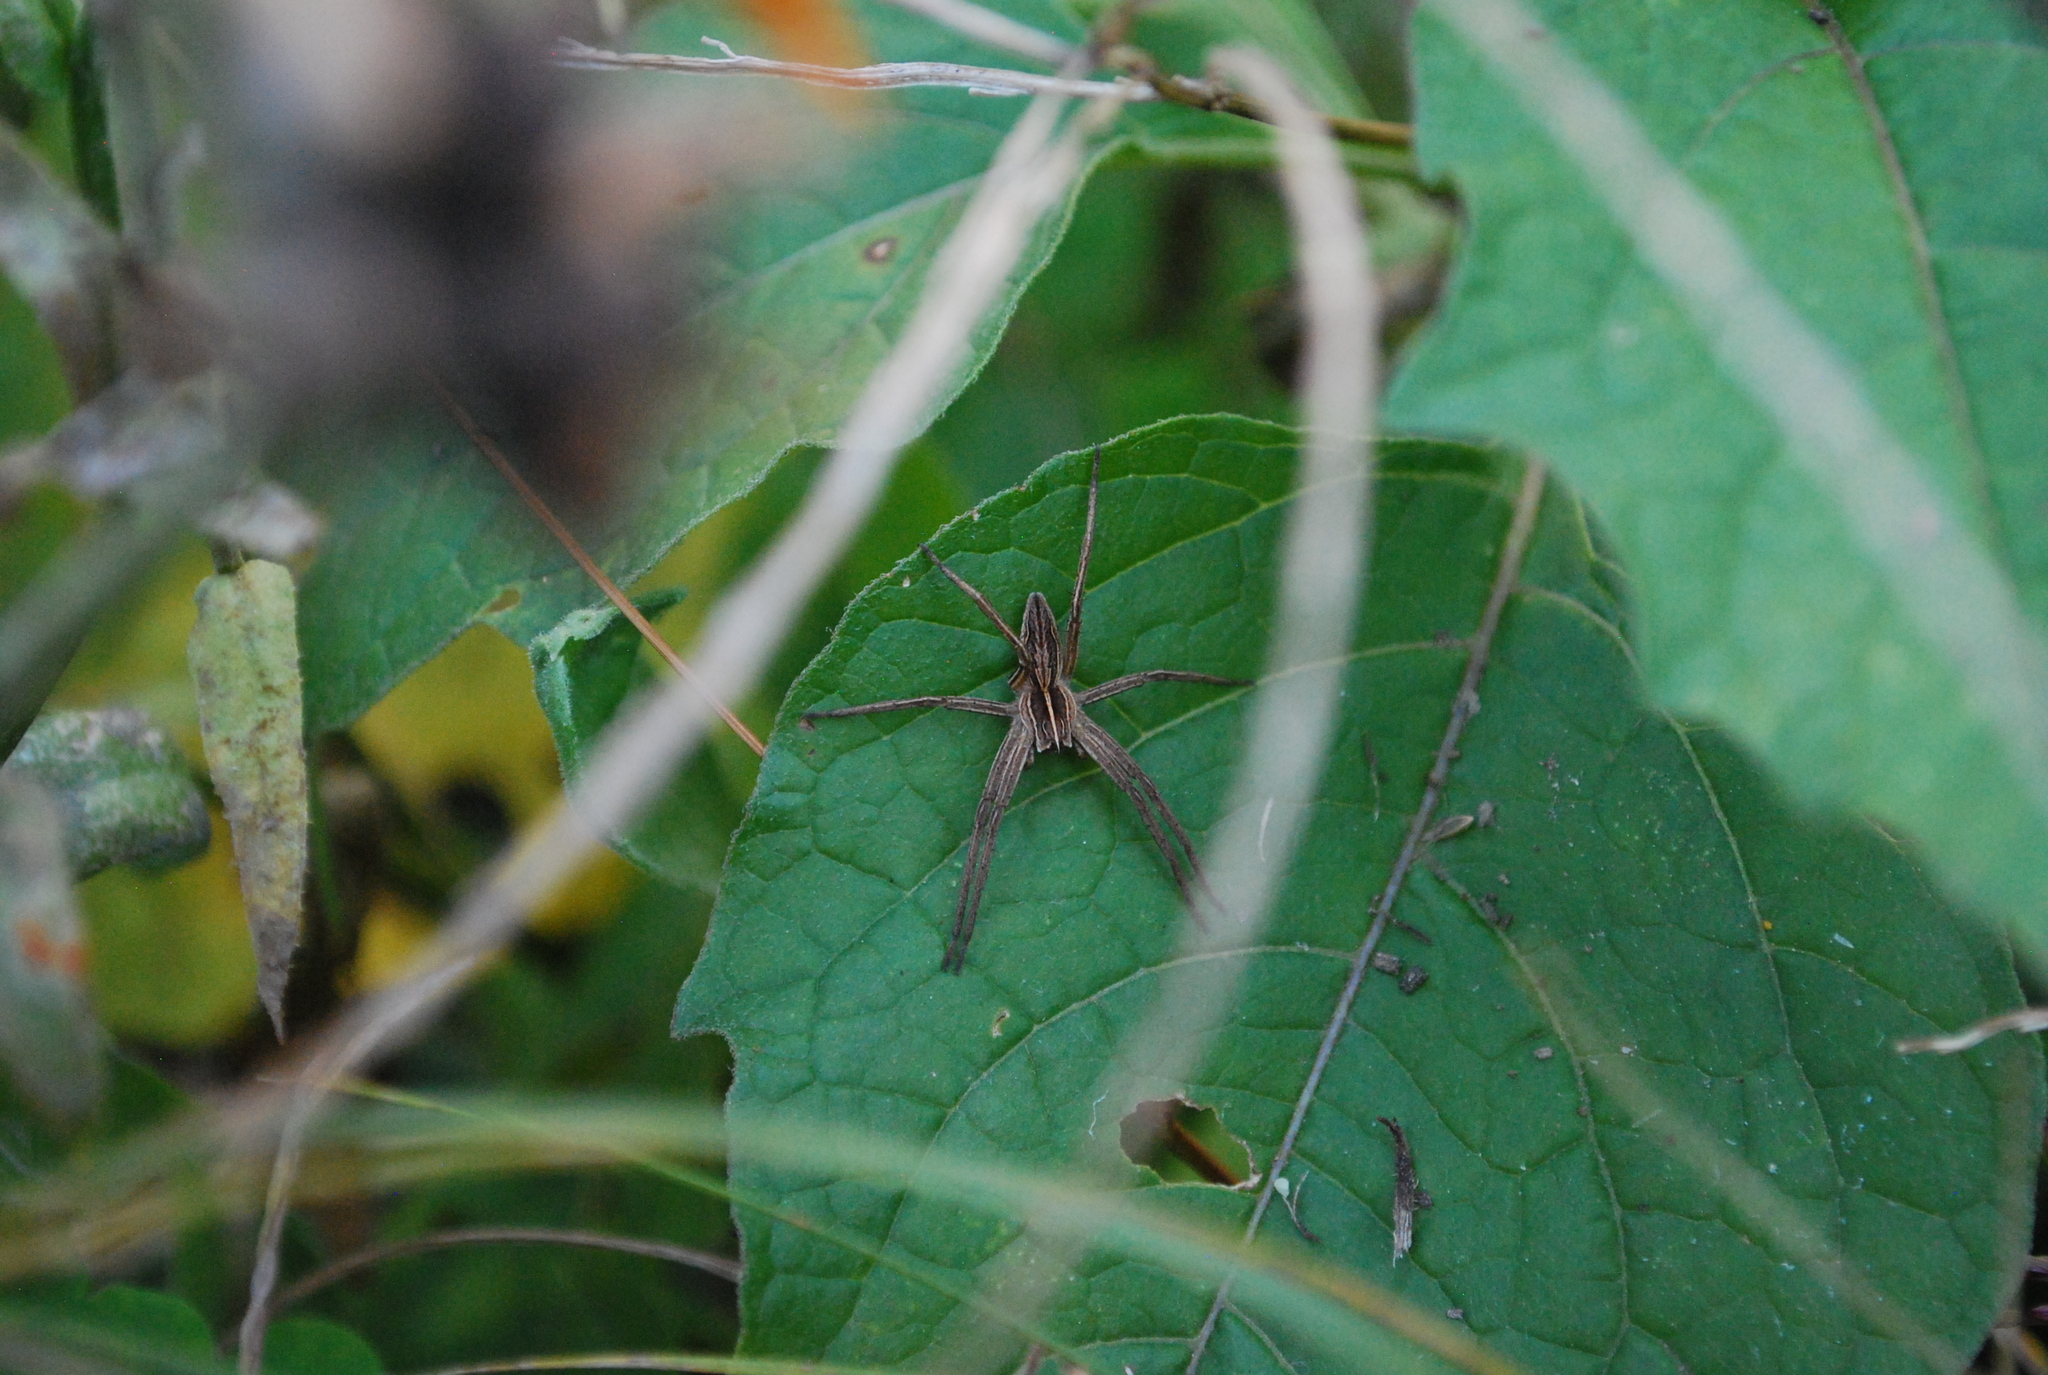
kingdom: Animalia
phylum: Arthropoda
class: Arachnida
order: Araneae
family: Pisauridae
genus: Pisaura
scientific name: Pisaura mirabilis
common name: Tent spider
